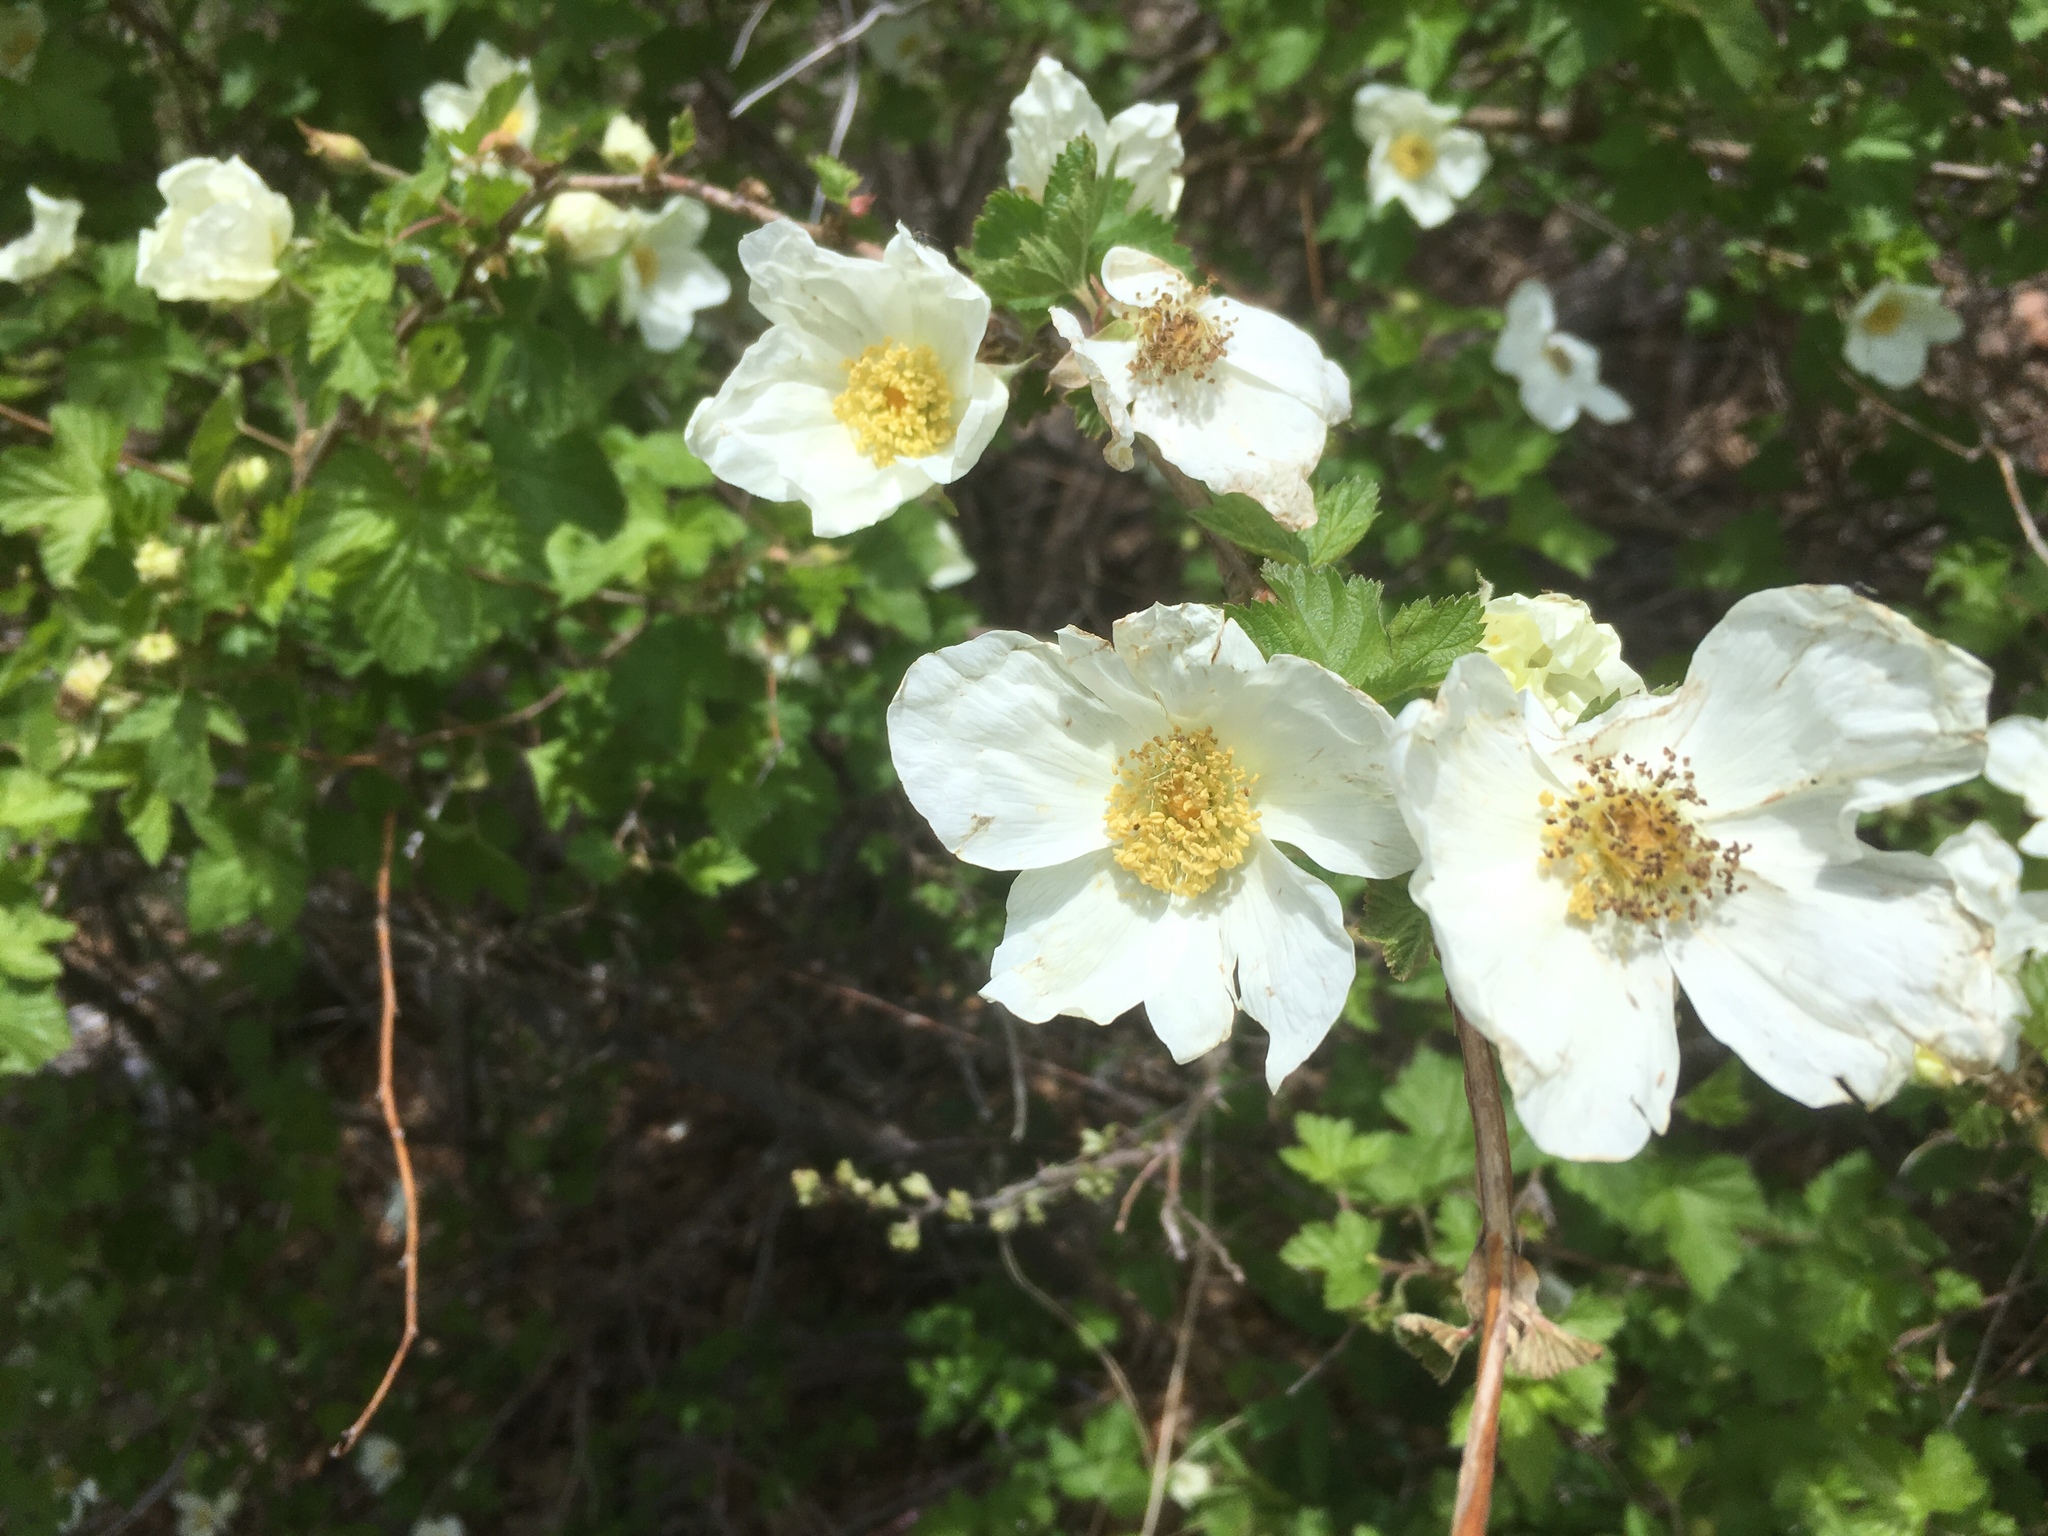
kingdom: Plantae
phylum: Tracheophyta
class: Magnoliopsida
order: Rosales
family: Rosaceae
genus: Rubus
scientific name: Rubus neomexicanus
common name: New mexico raspberry
